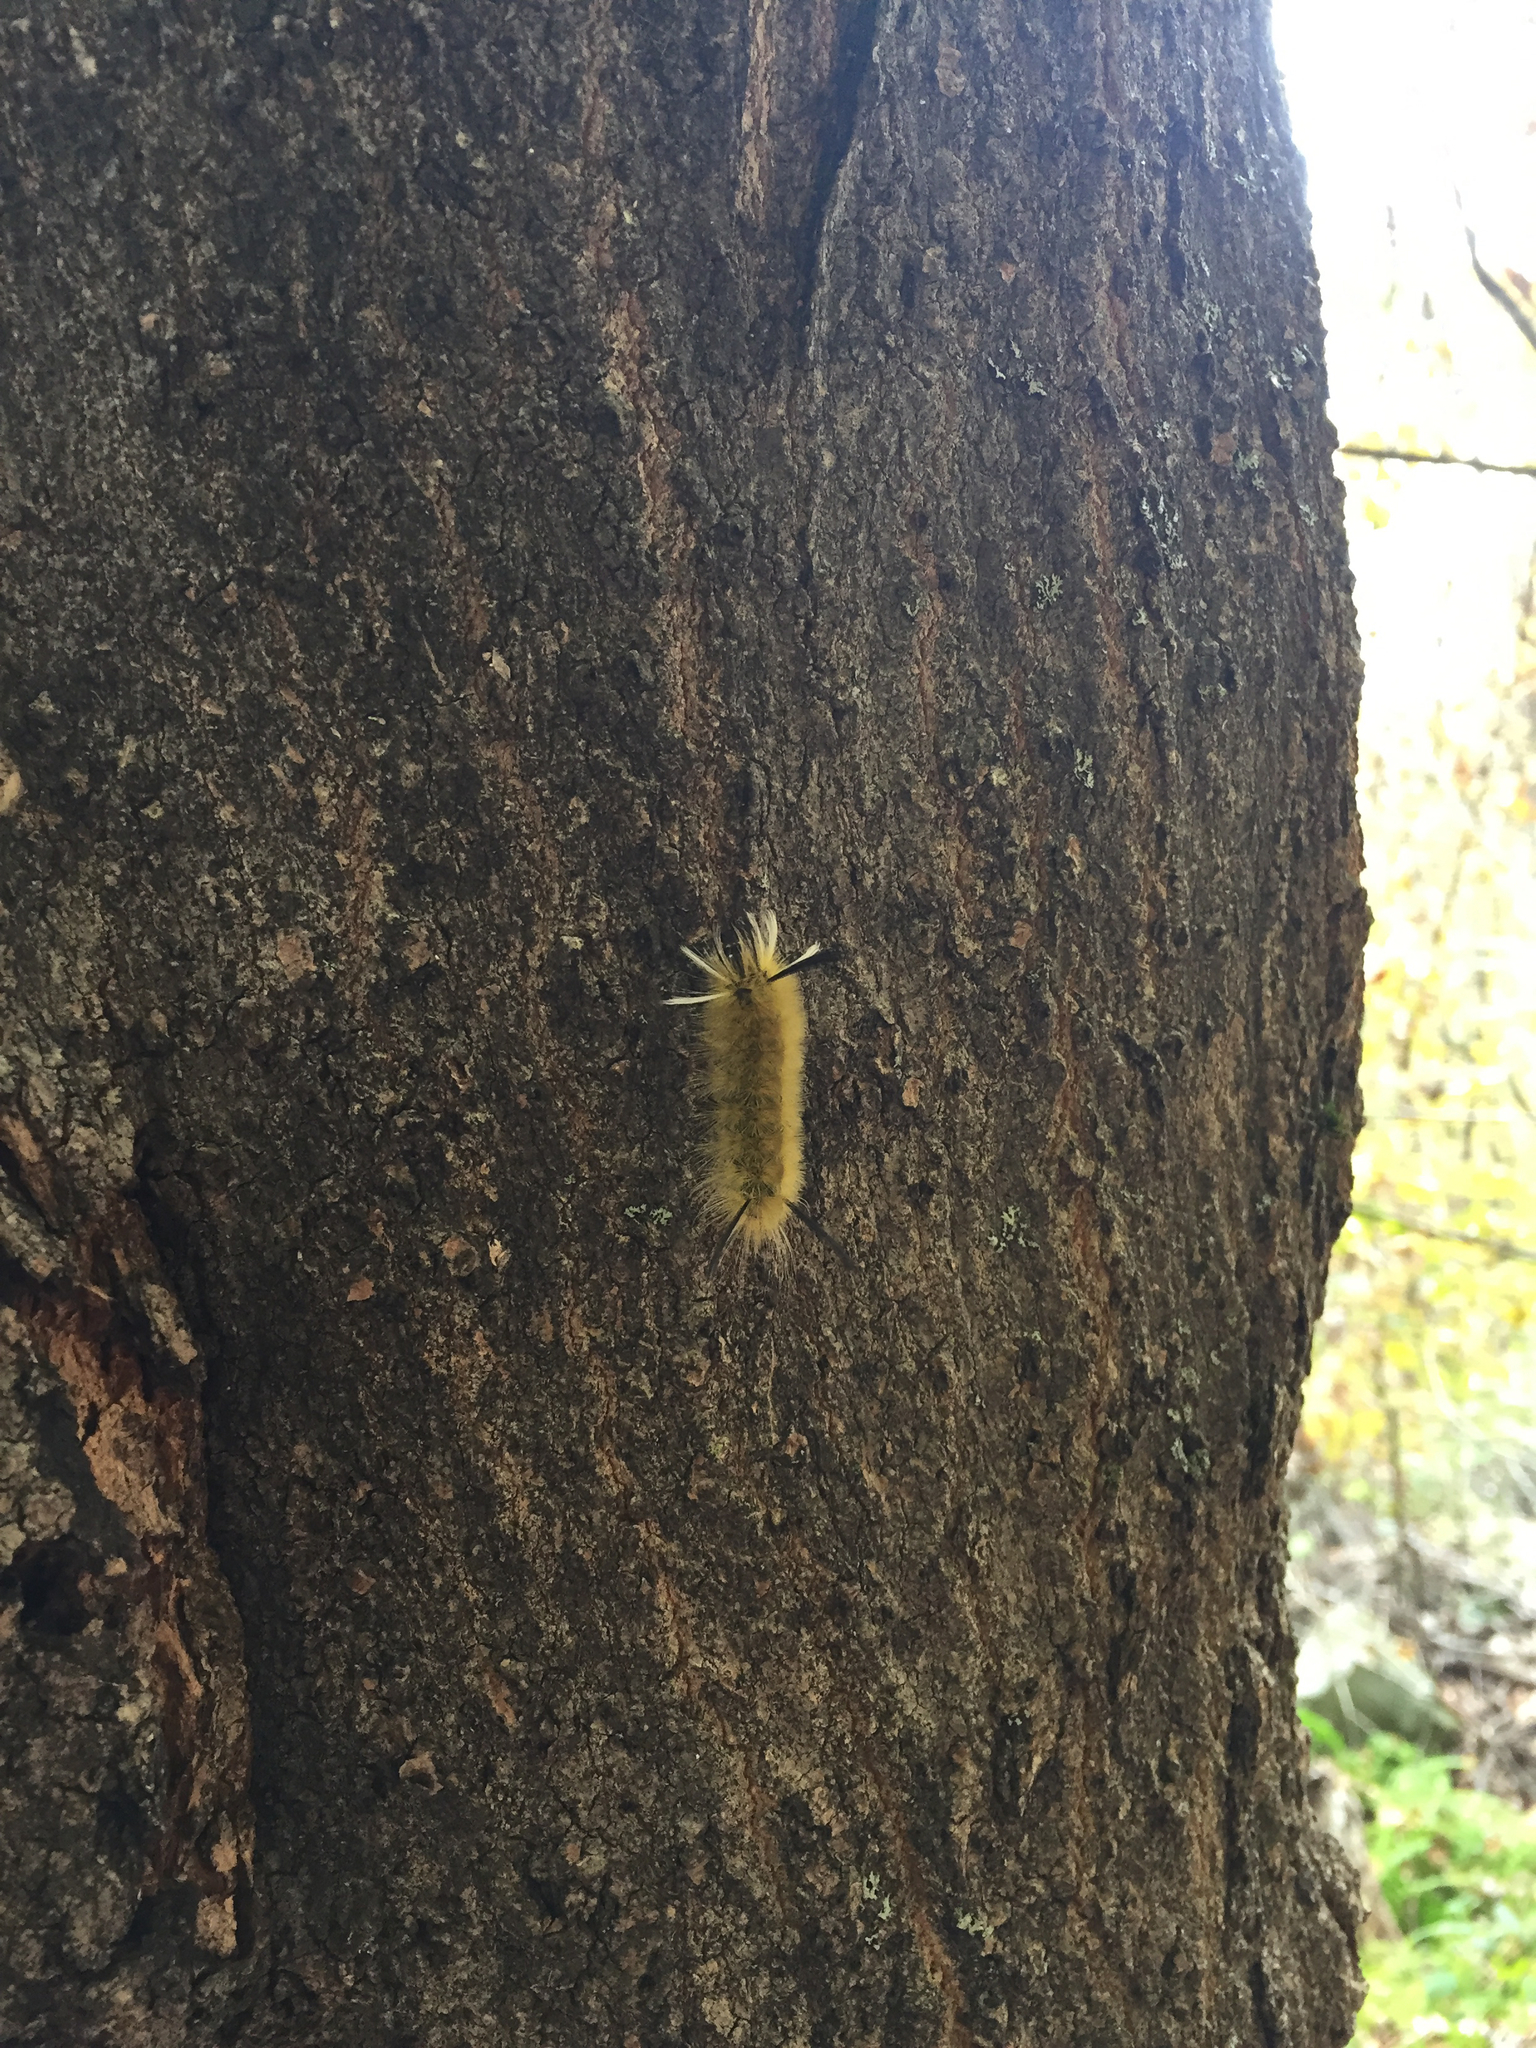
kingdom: Animalia
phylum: Arthropoda
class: Insecta
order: Lepidoptera
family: Erebidae
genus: Halysidota
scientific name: Halysidota tessellaris
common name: Banded tussock moth
